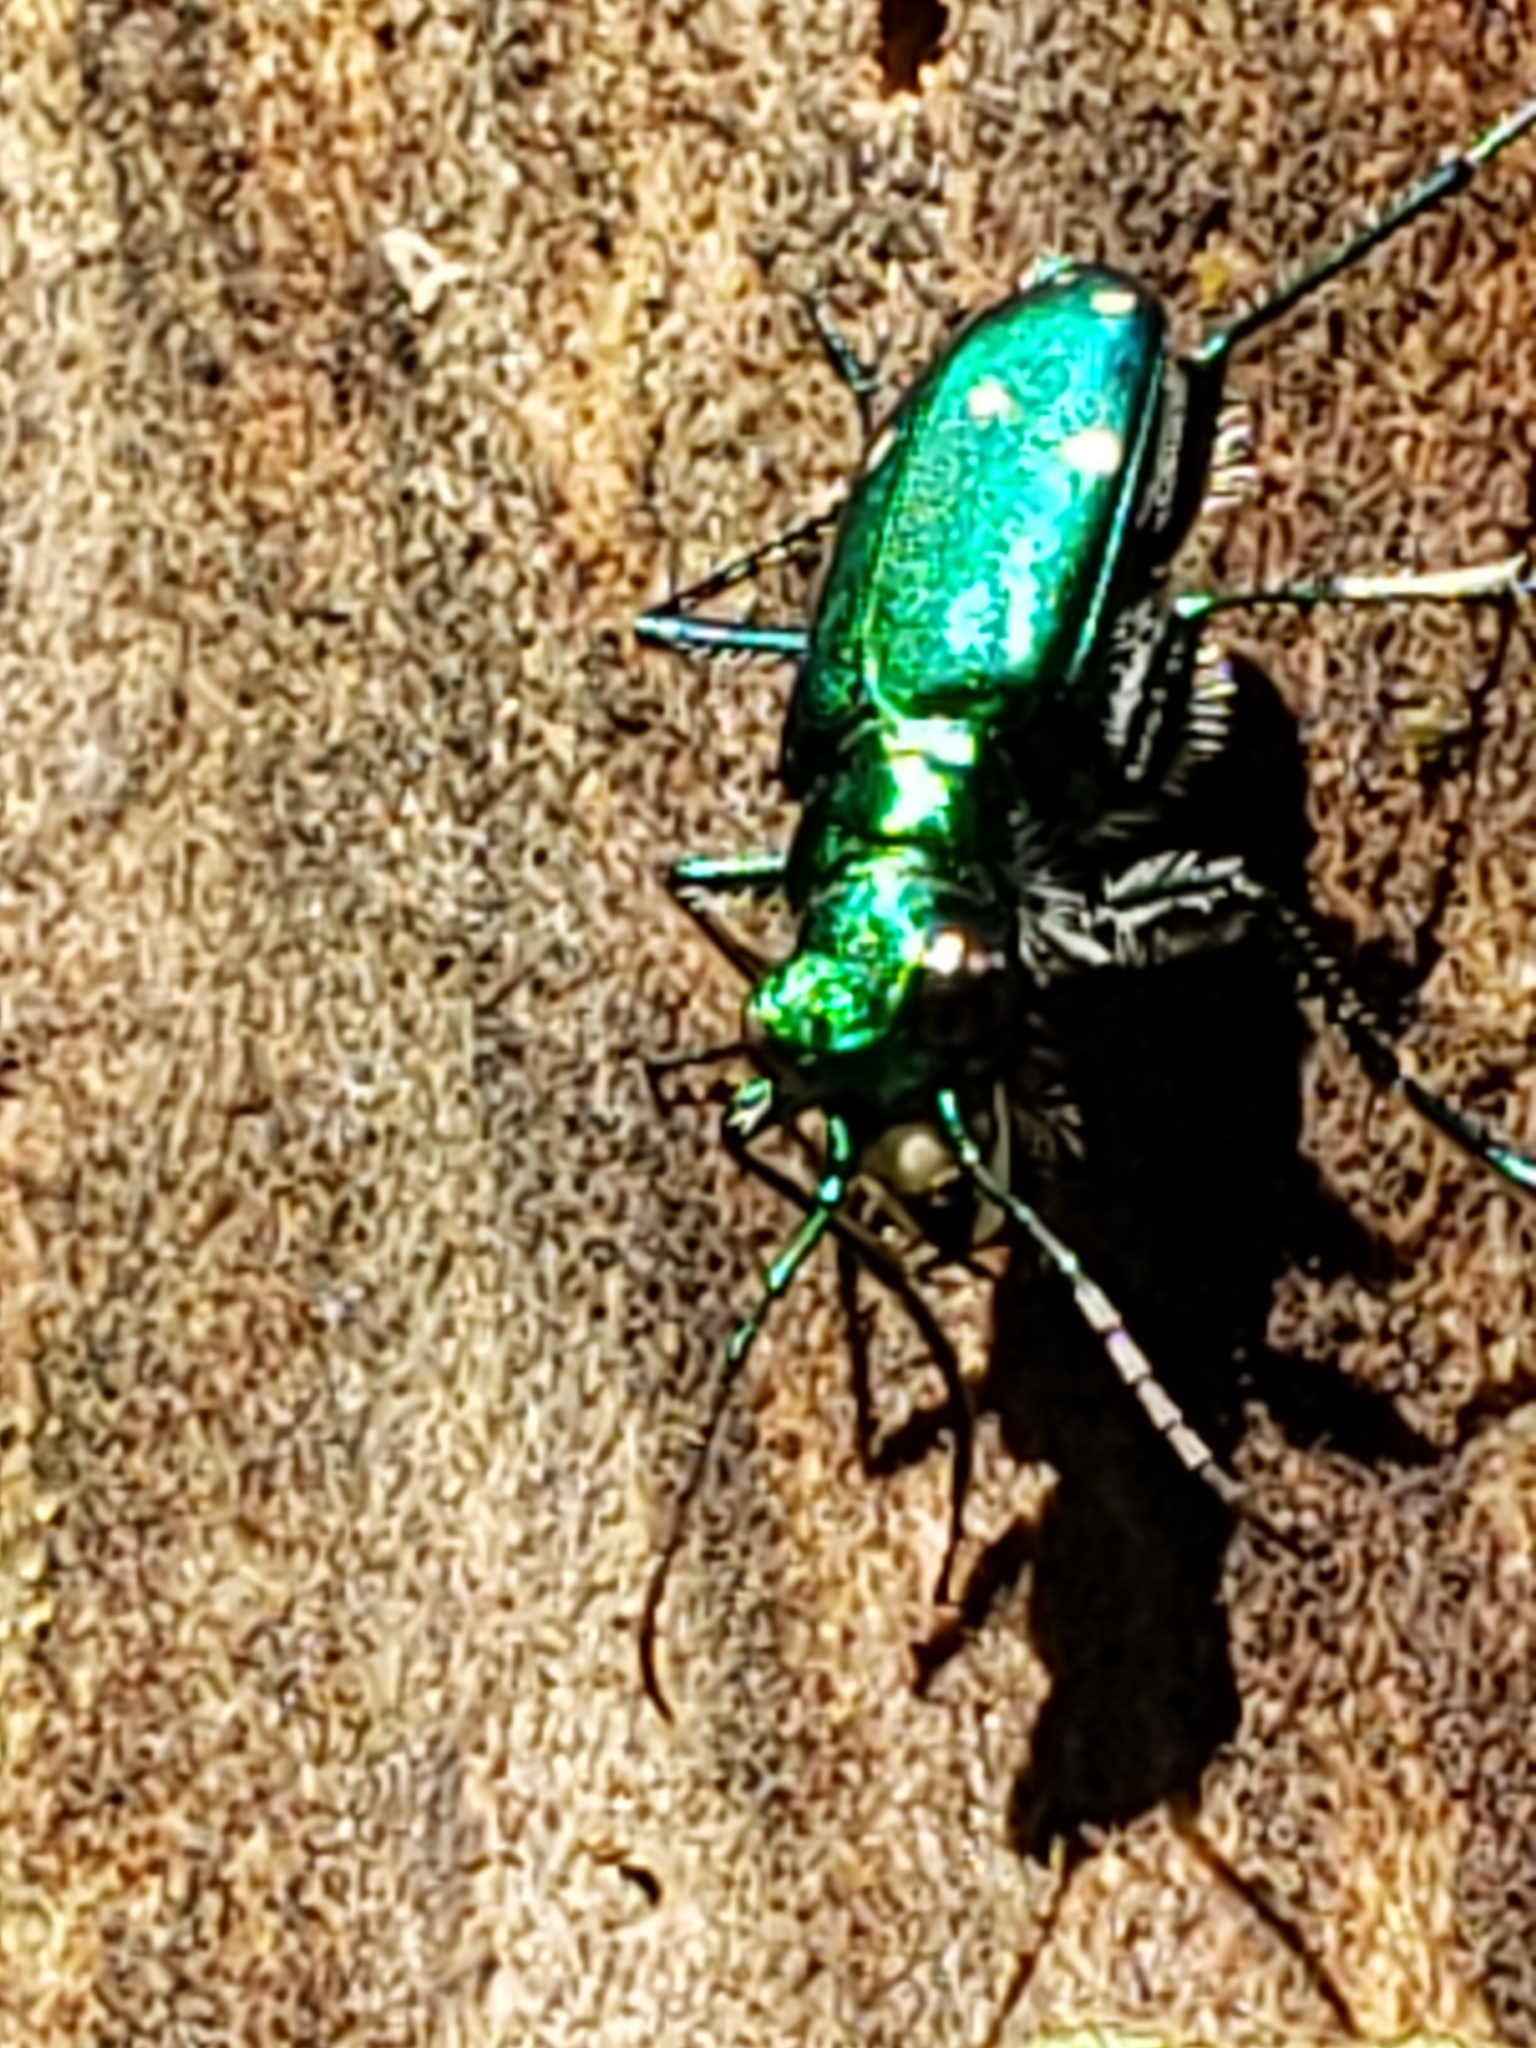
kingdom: Animalia
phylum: Arthropoda
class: Insecta
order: Coleoptera
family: Carabidae
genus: Cicindela
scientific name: Cicindela sexguttata
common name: Six-spotted tiger beetle
